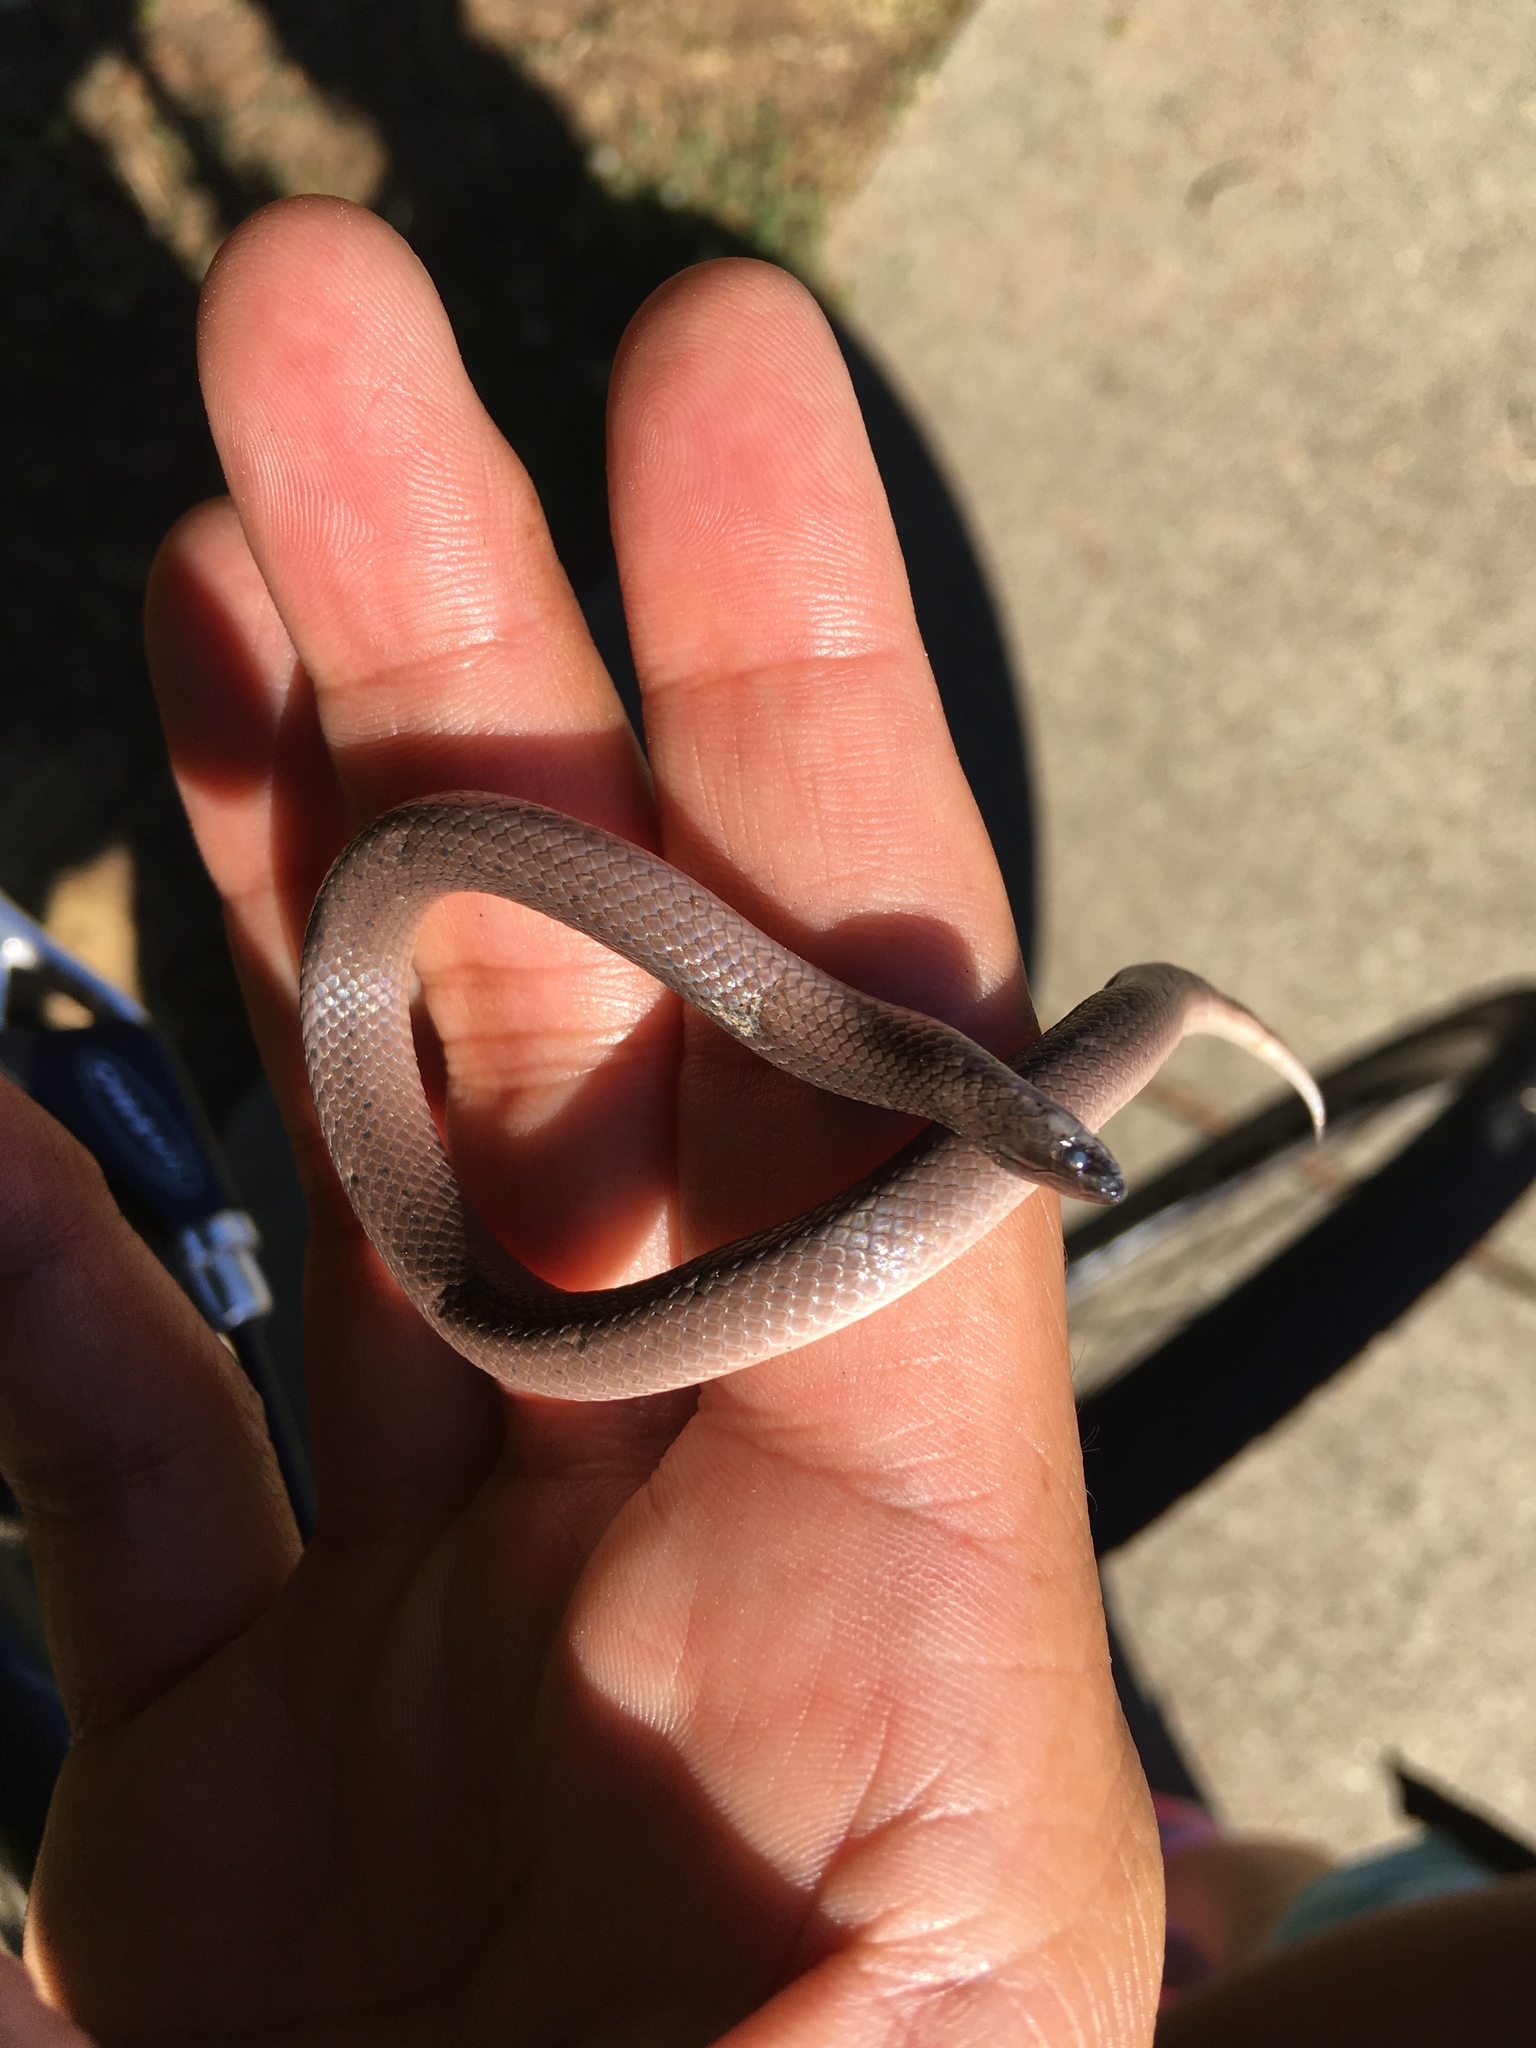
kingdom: Animalia
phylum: Chordata
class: Squamata
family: Colubridae
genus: Virginia
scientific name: Virginia valeriae
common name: Smooth earth snake
